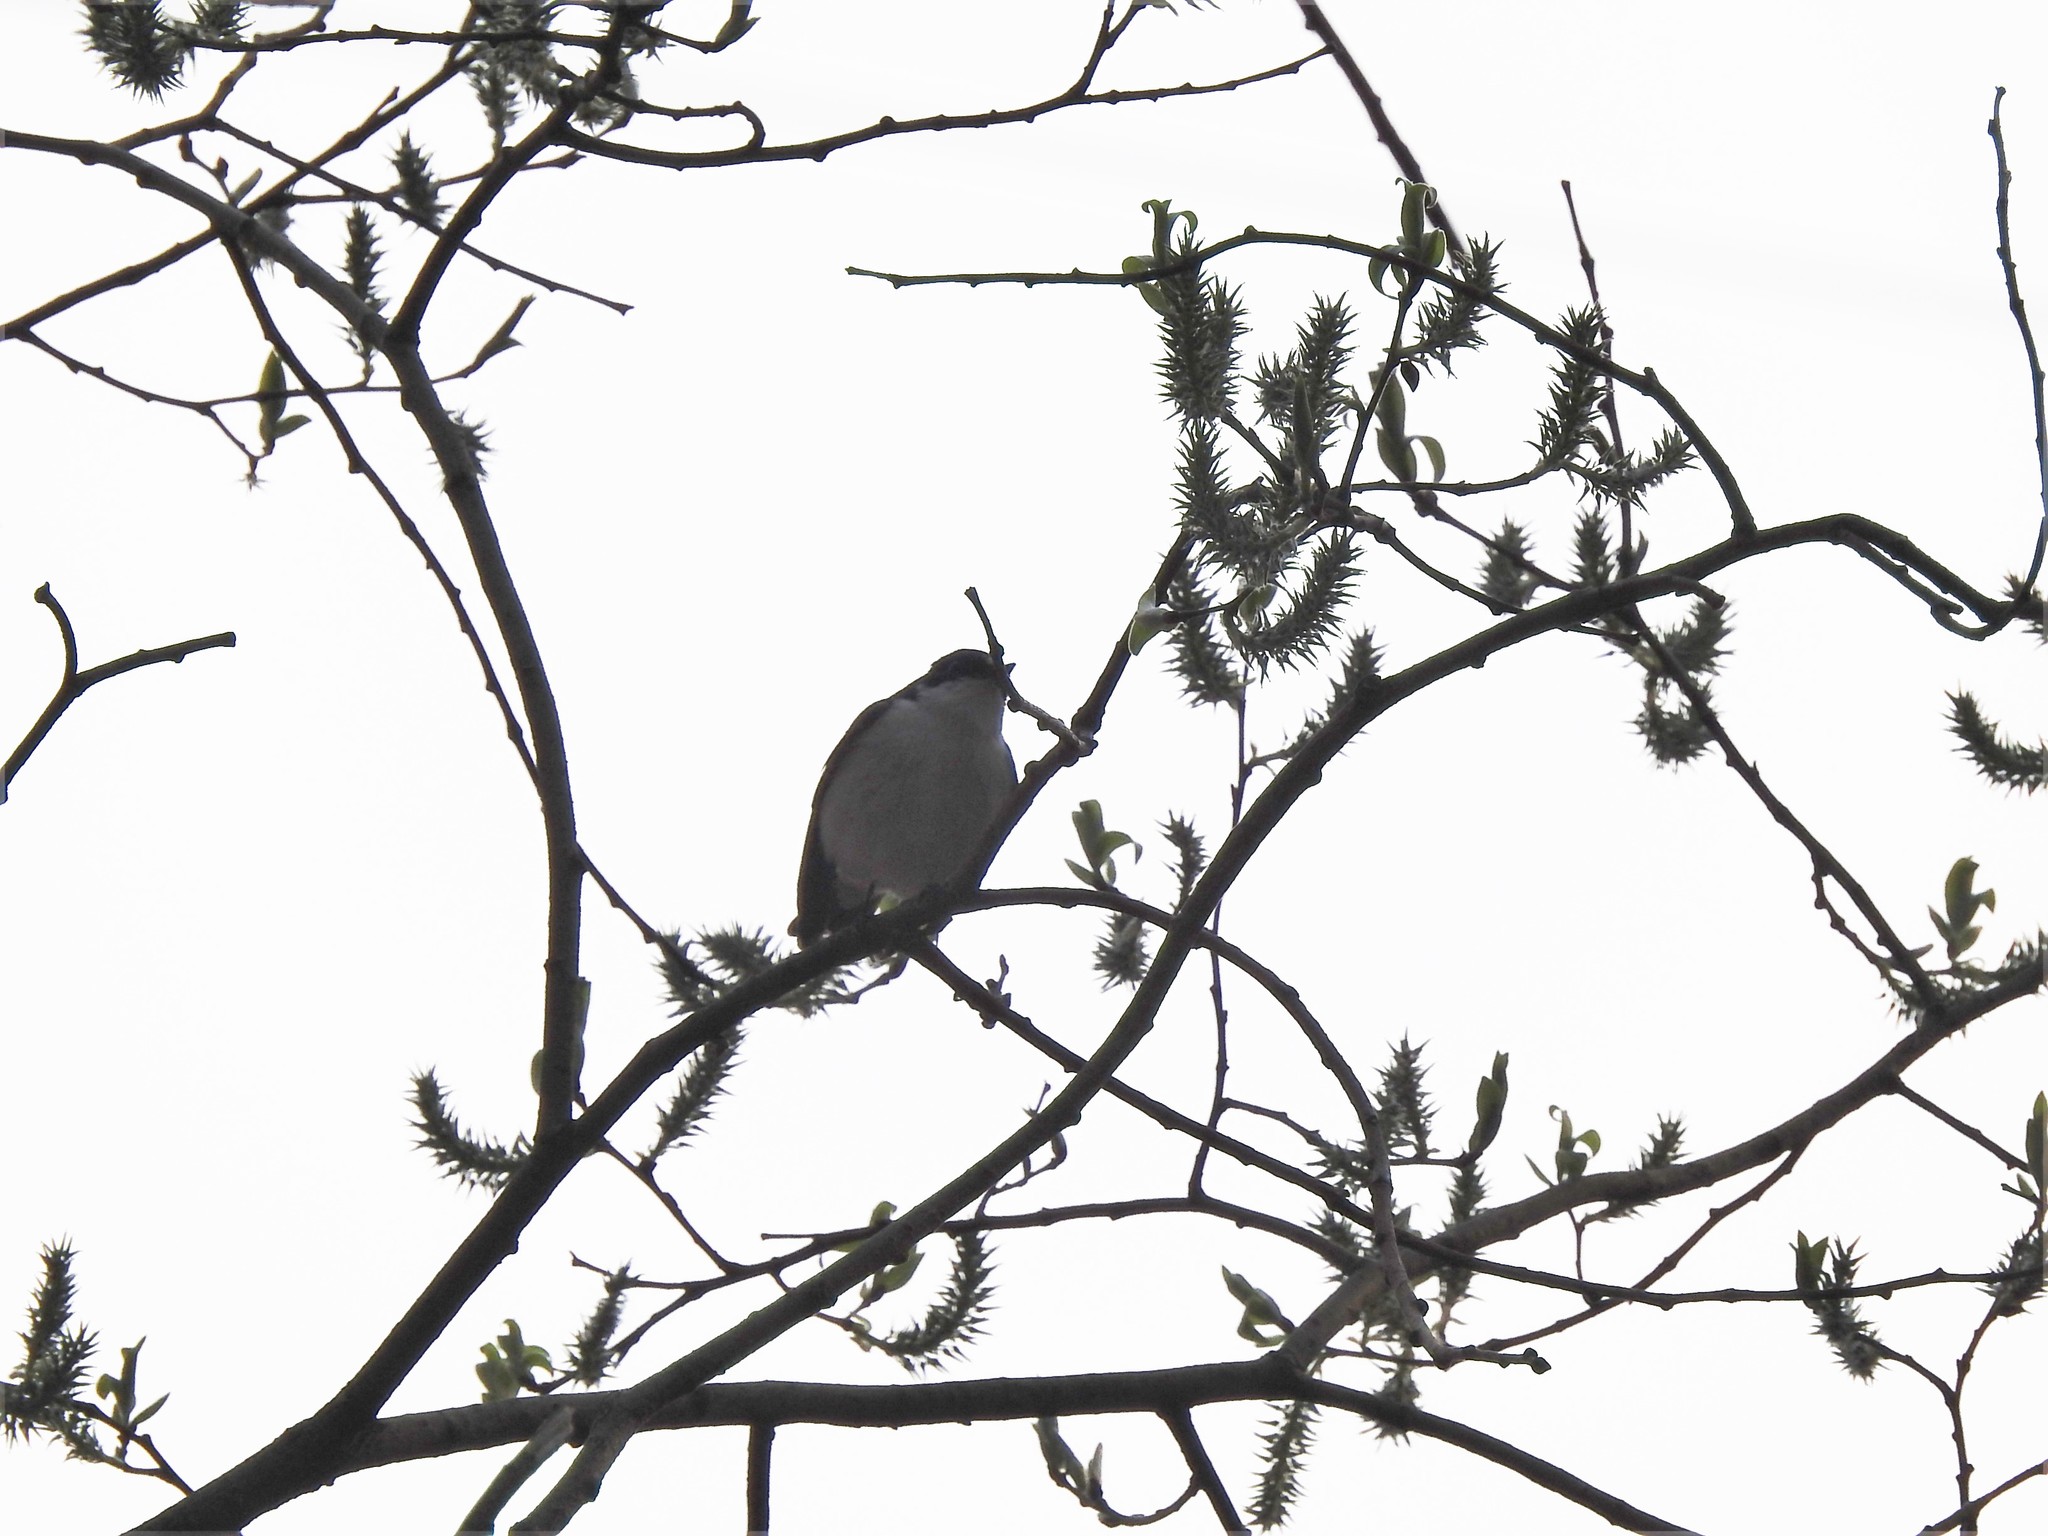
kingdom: Animalia
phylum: Chordata
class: Aves
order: Passeriformes
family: Muscicapidae
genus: Ficedula
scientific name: Ficedula hypoleuca
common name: European pied flycatcher
